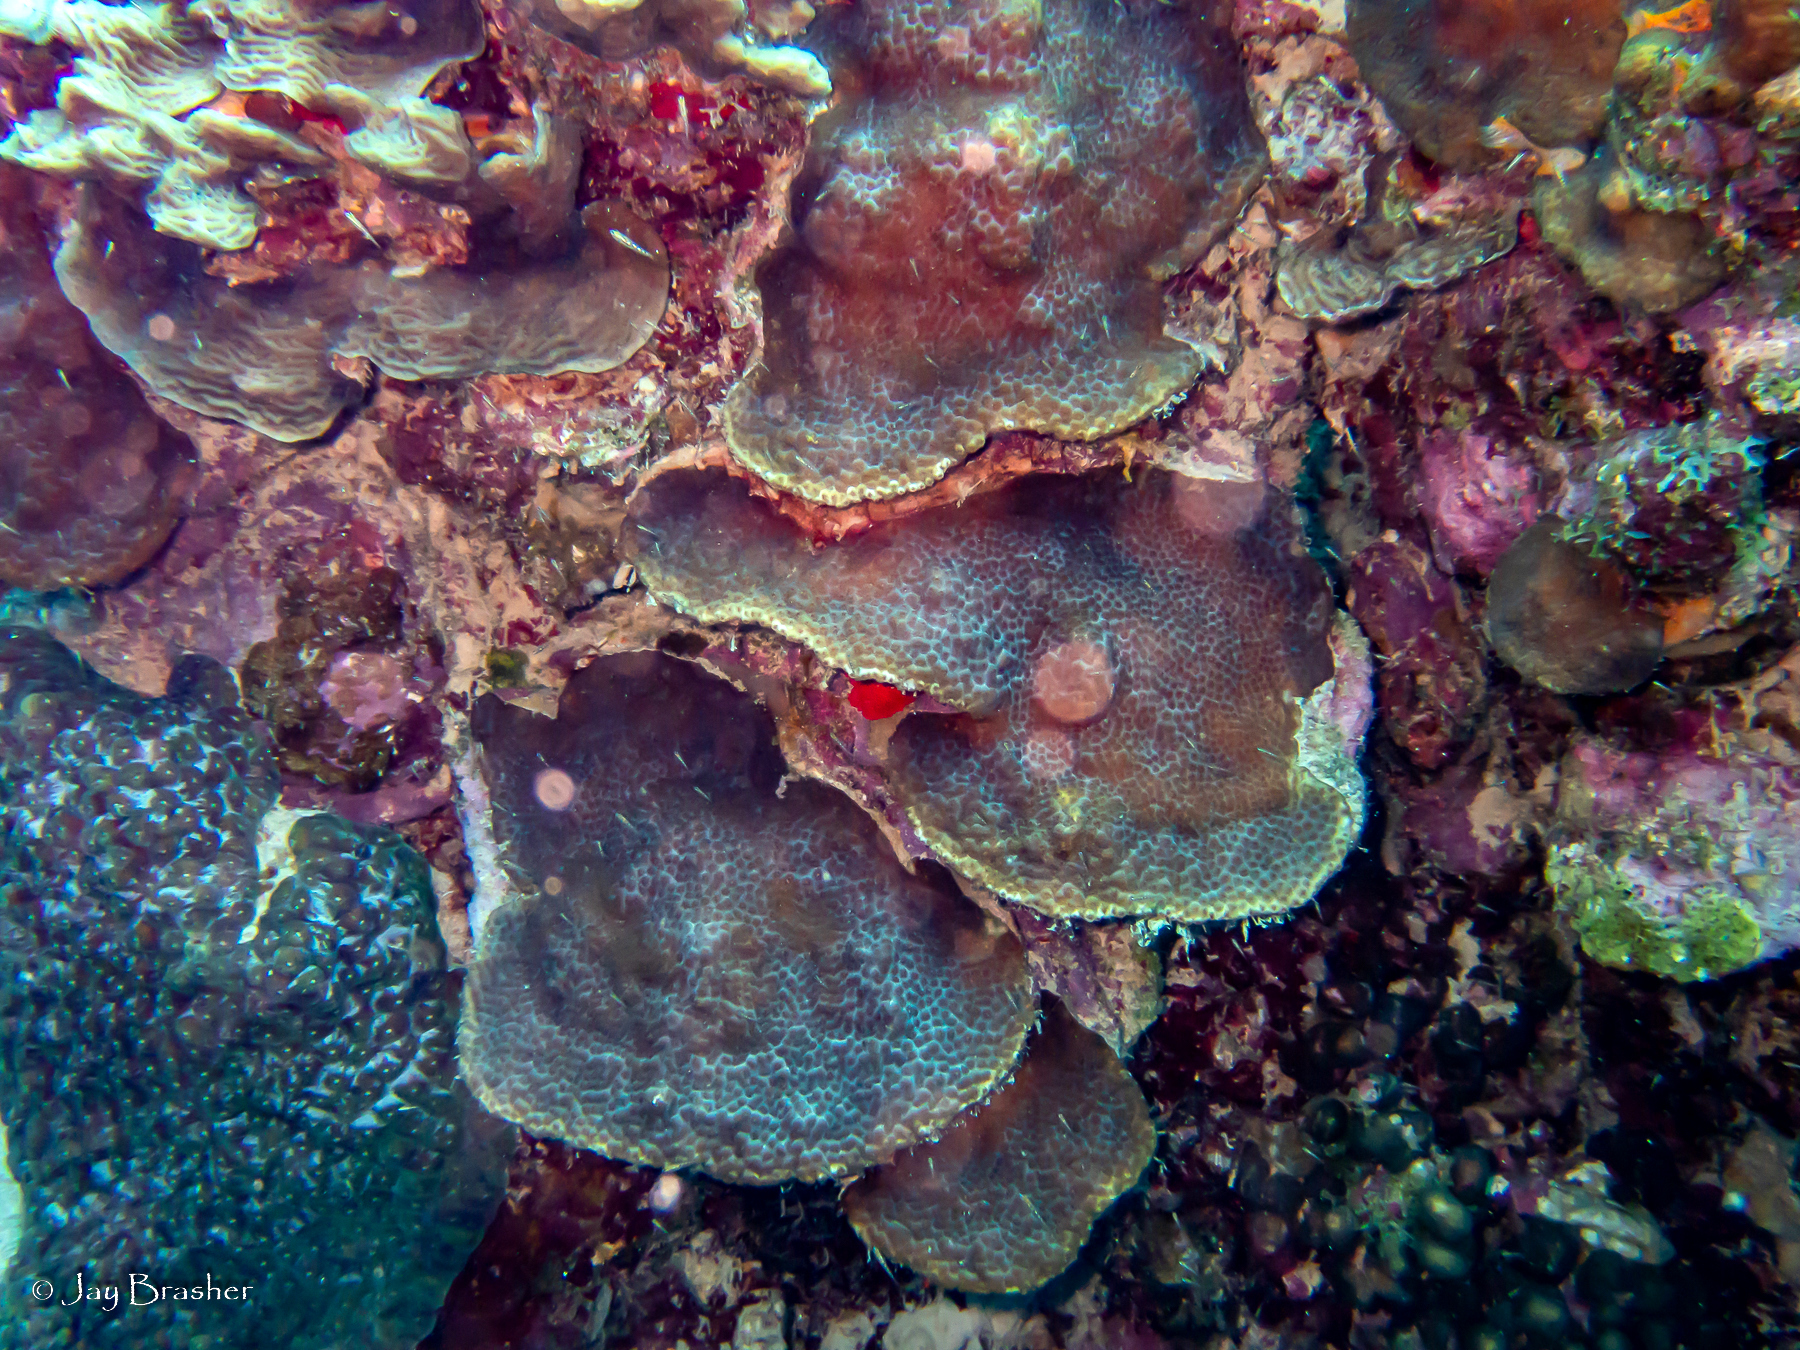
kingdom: Animalia
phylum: Cnidaria
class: Anthozoa
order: Scleractinia
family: Montastraeidae
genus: Montastraea
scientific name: Montastraea cavernosa
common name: Great star coral
